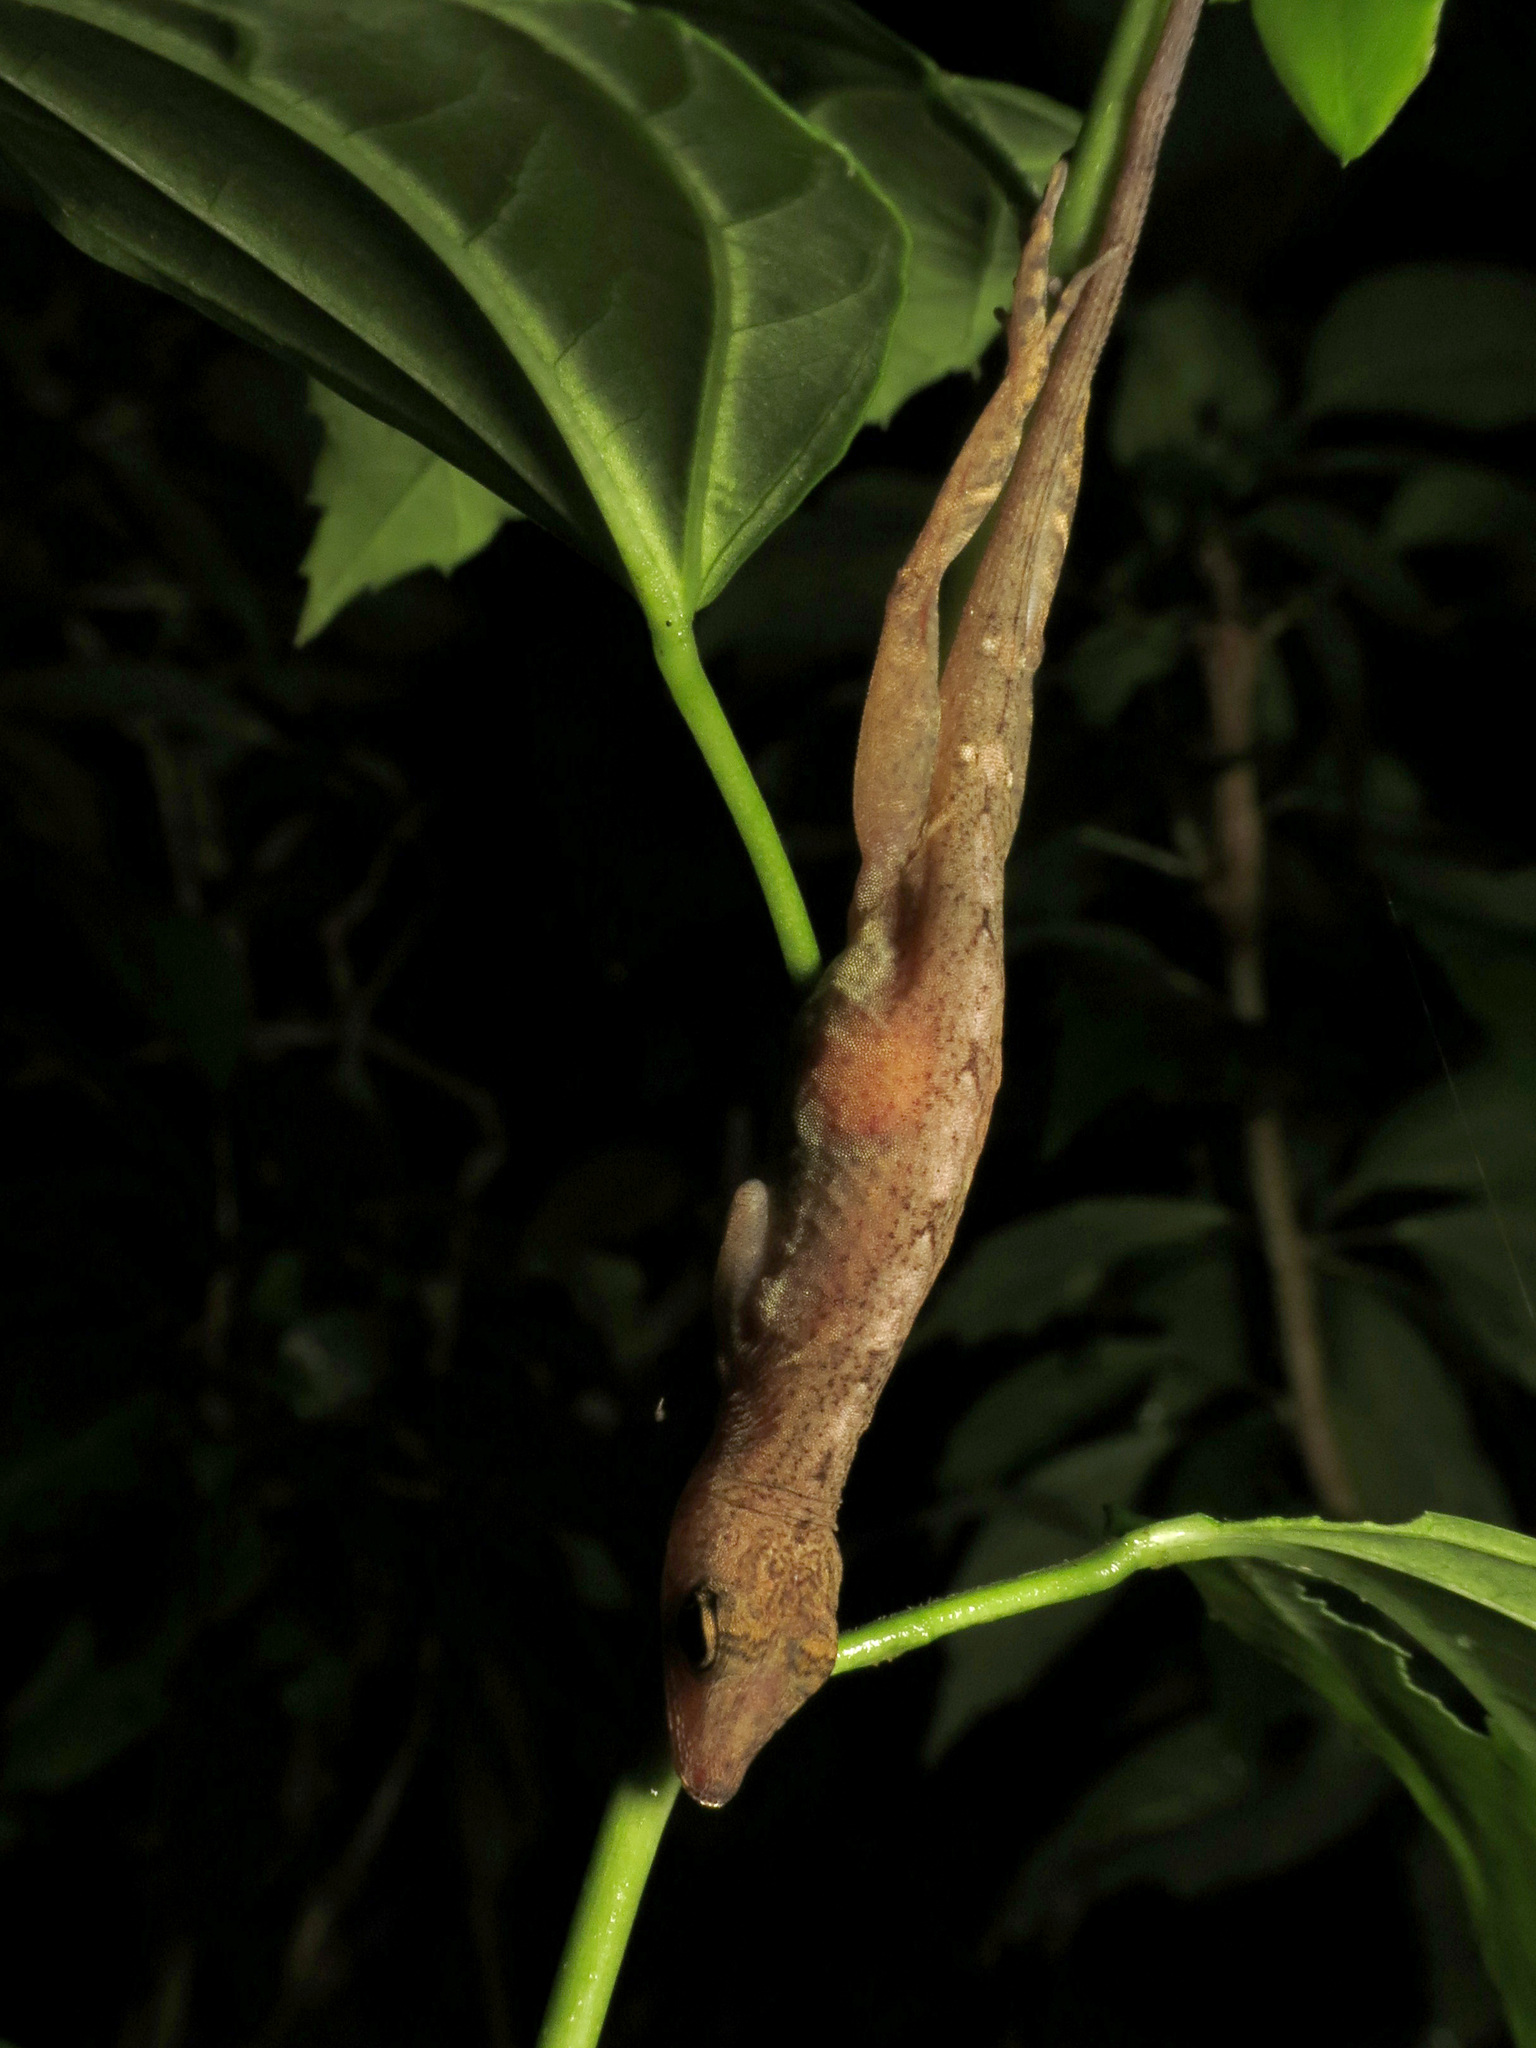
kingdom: Animalia
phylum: Chordata
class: Squamata
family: Dactyloidae
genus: Anolis
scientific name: Anolis osa
